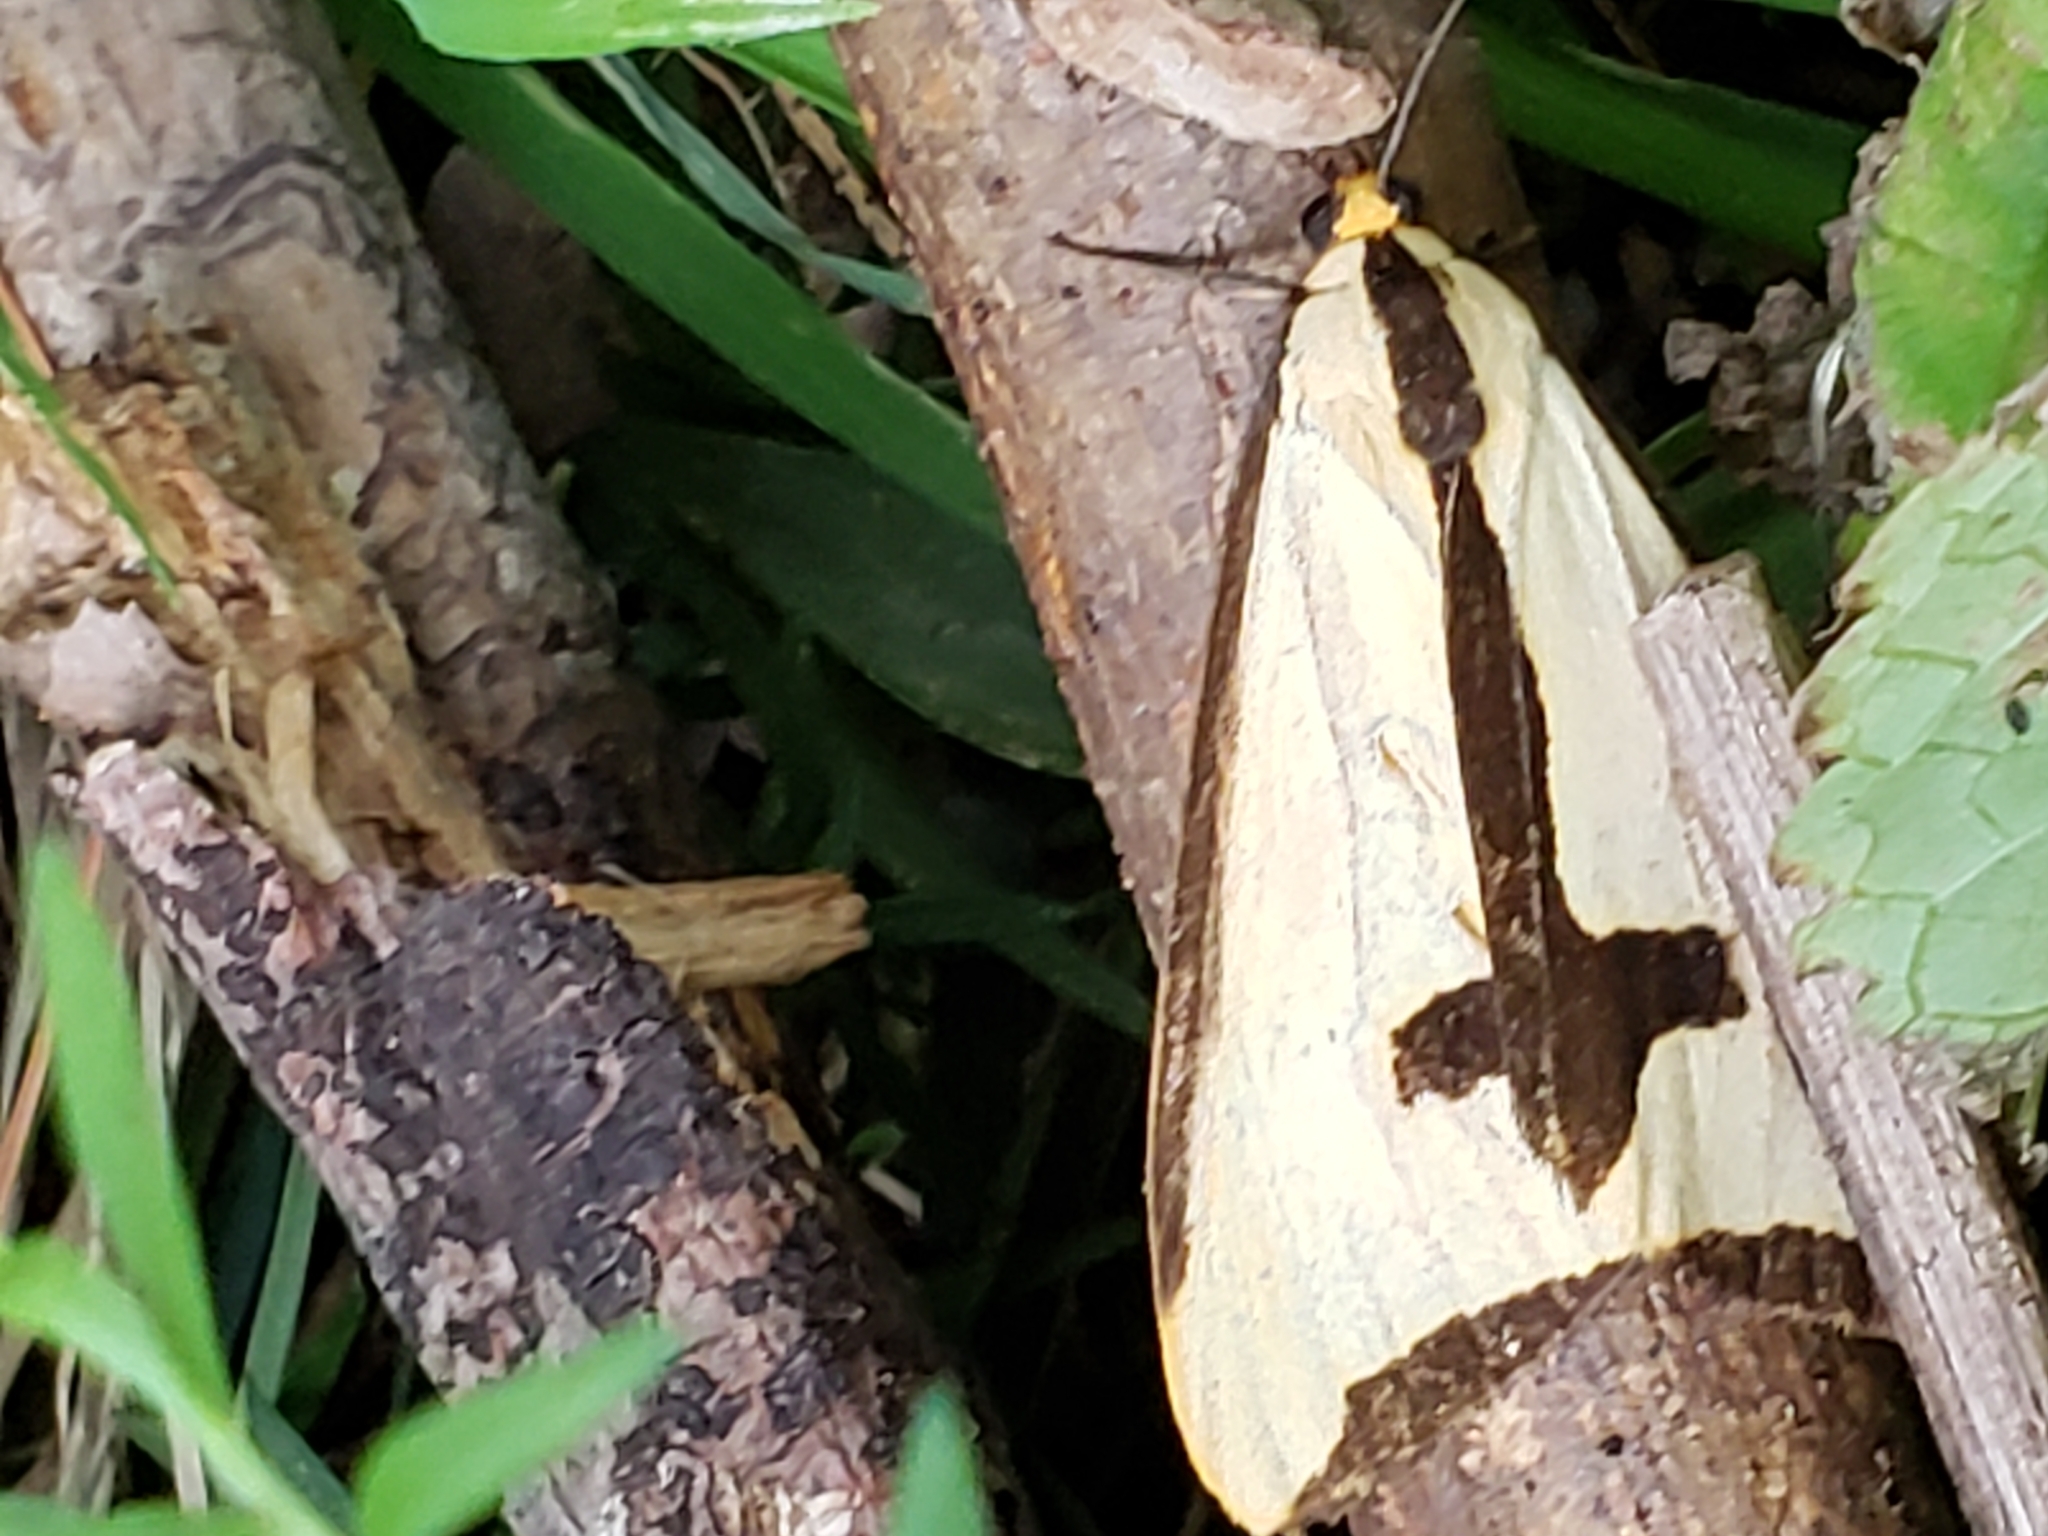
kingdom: Animalia
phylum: Arthropoda
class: Insecta
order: Lepidoptera
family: Erebidae
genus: Haploa
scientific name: Haploa clymene
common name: Clymene moth
